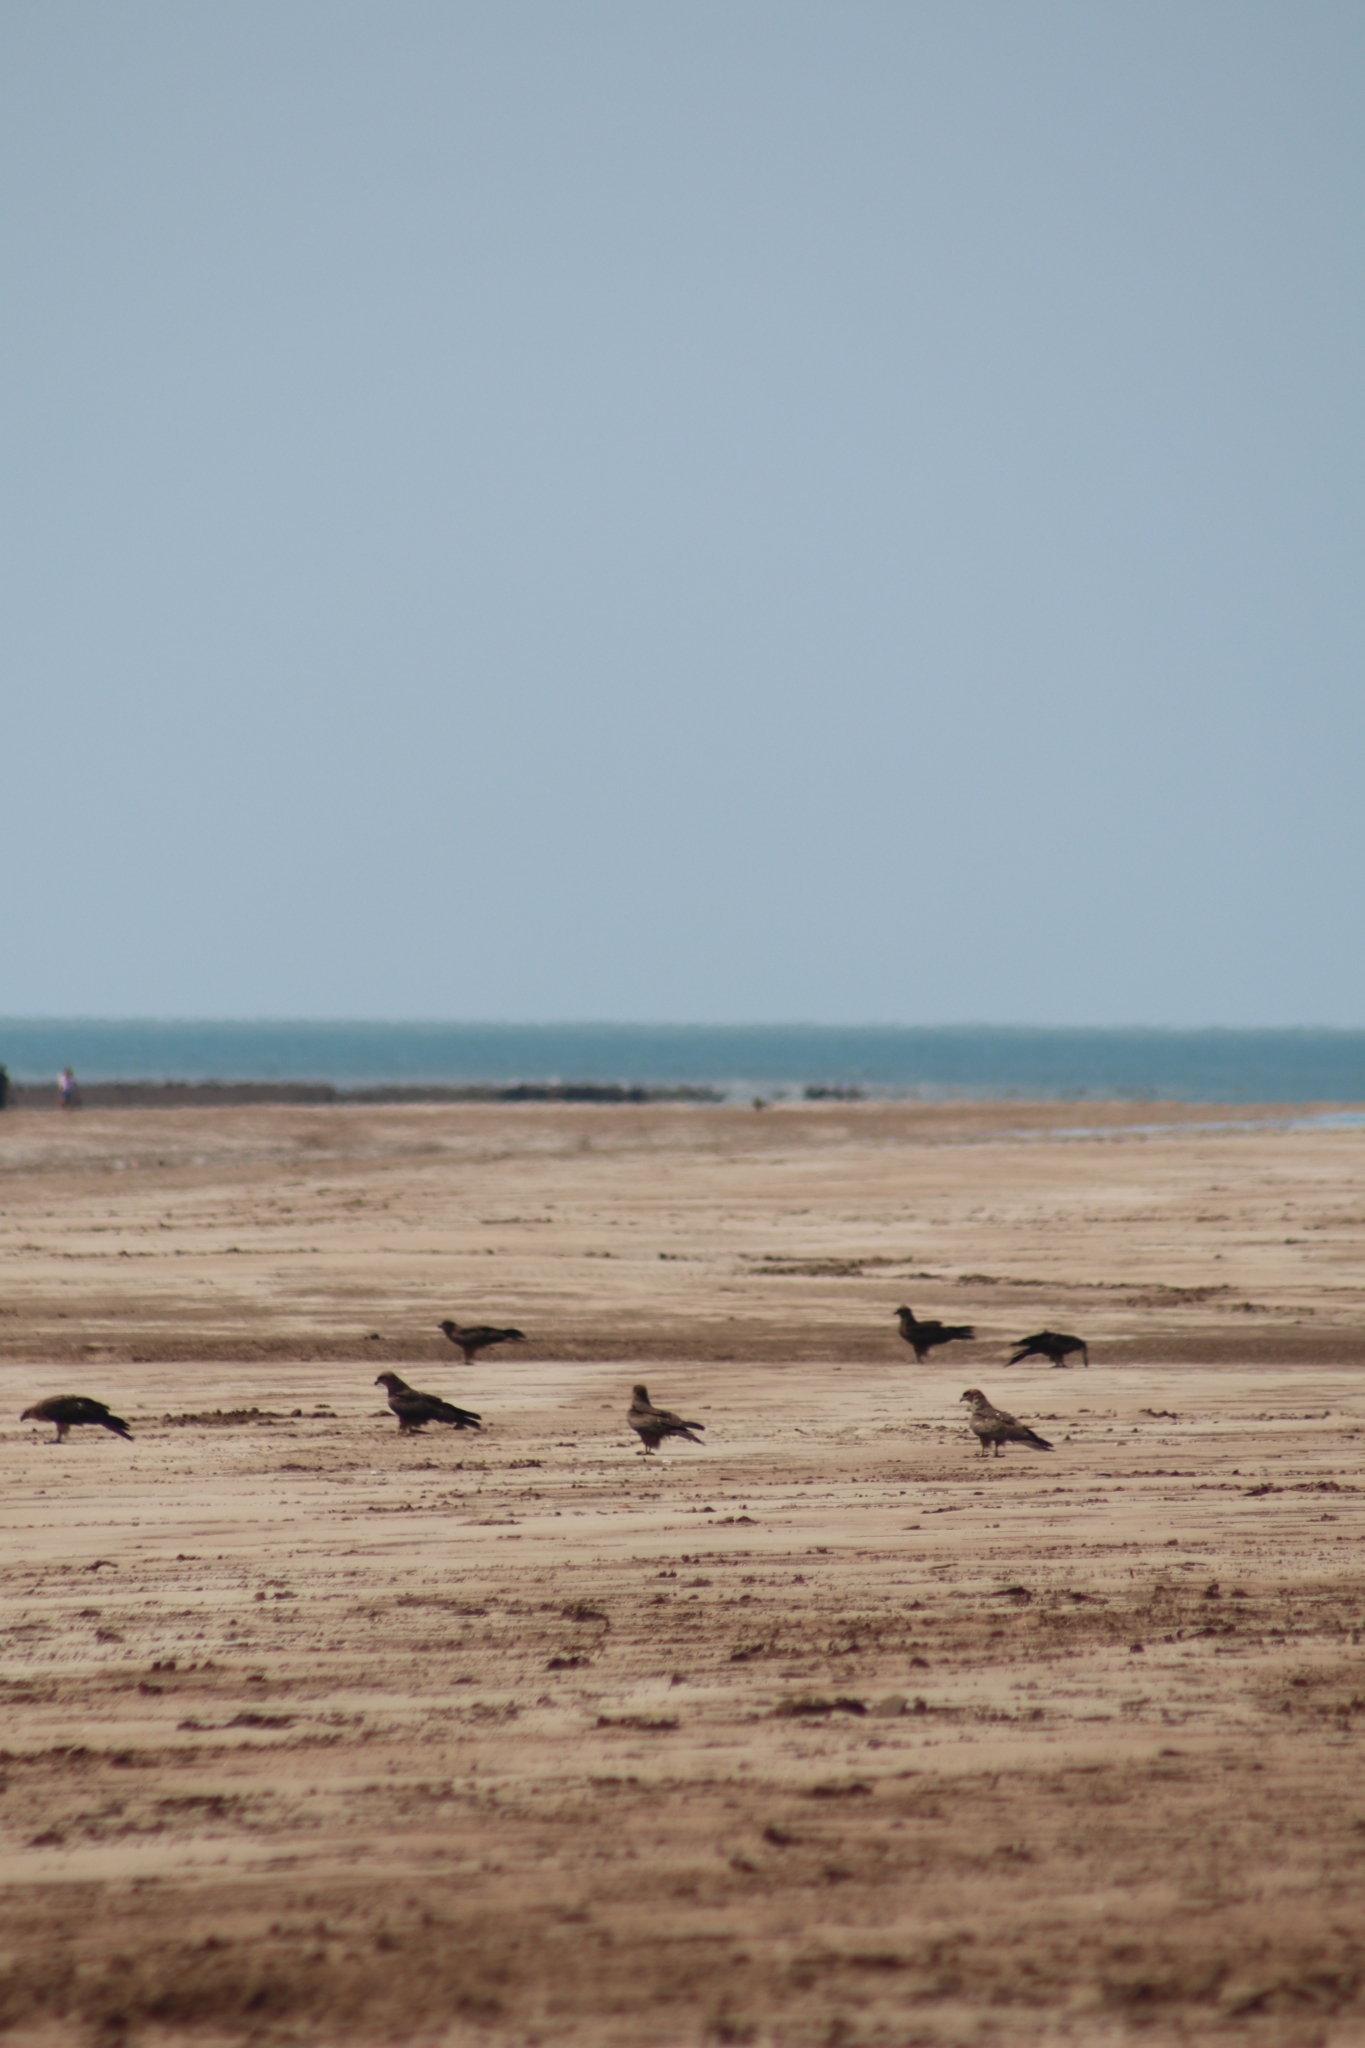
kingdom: Animalia
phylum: Chordata
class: Aves
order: Accipitriformes
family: Accipitridae
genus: Milvus
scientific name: Milvus migrans
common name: Black kite
